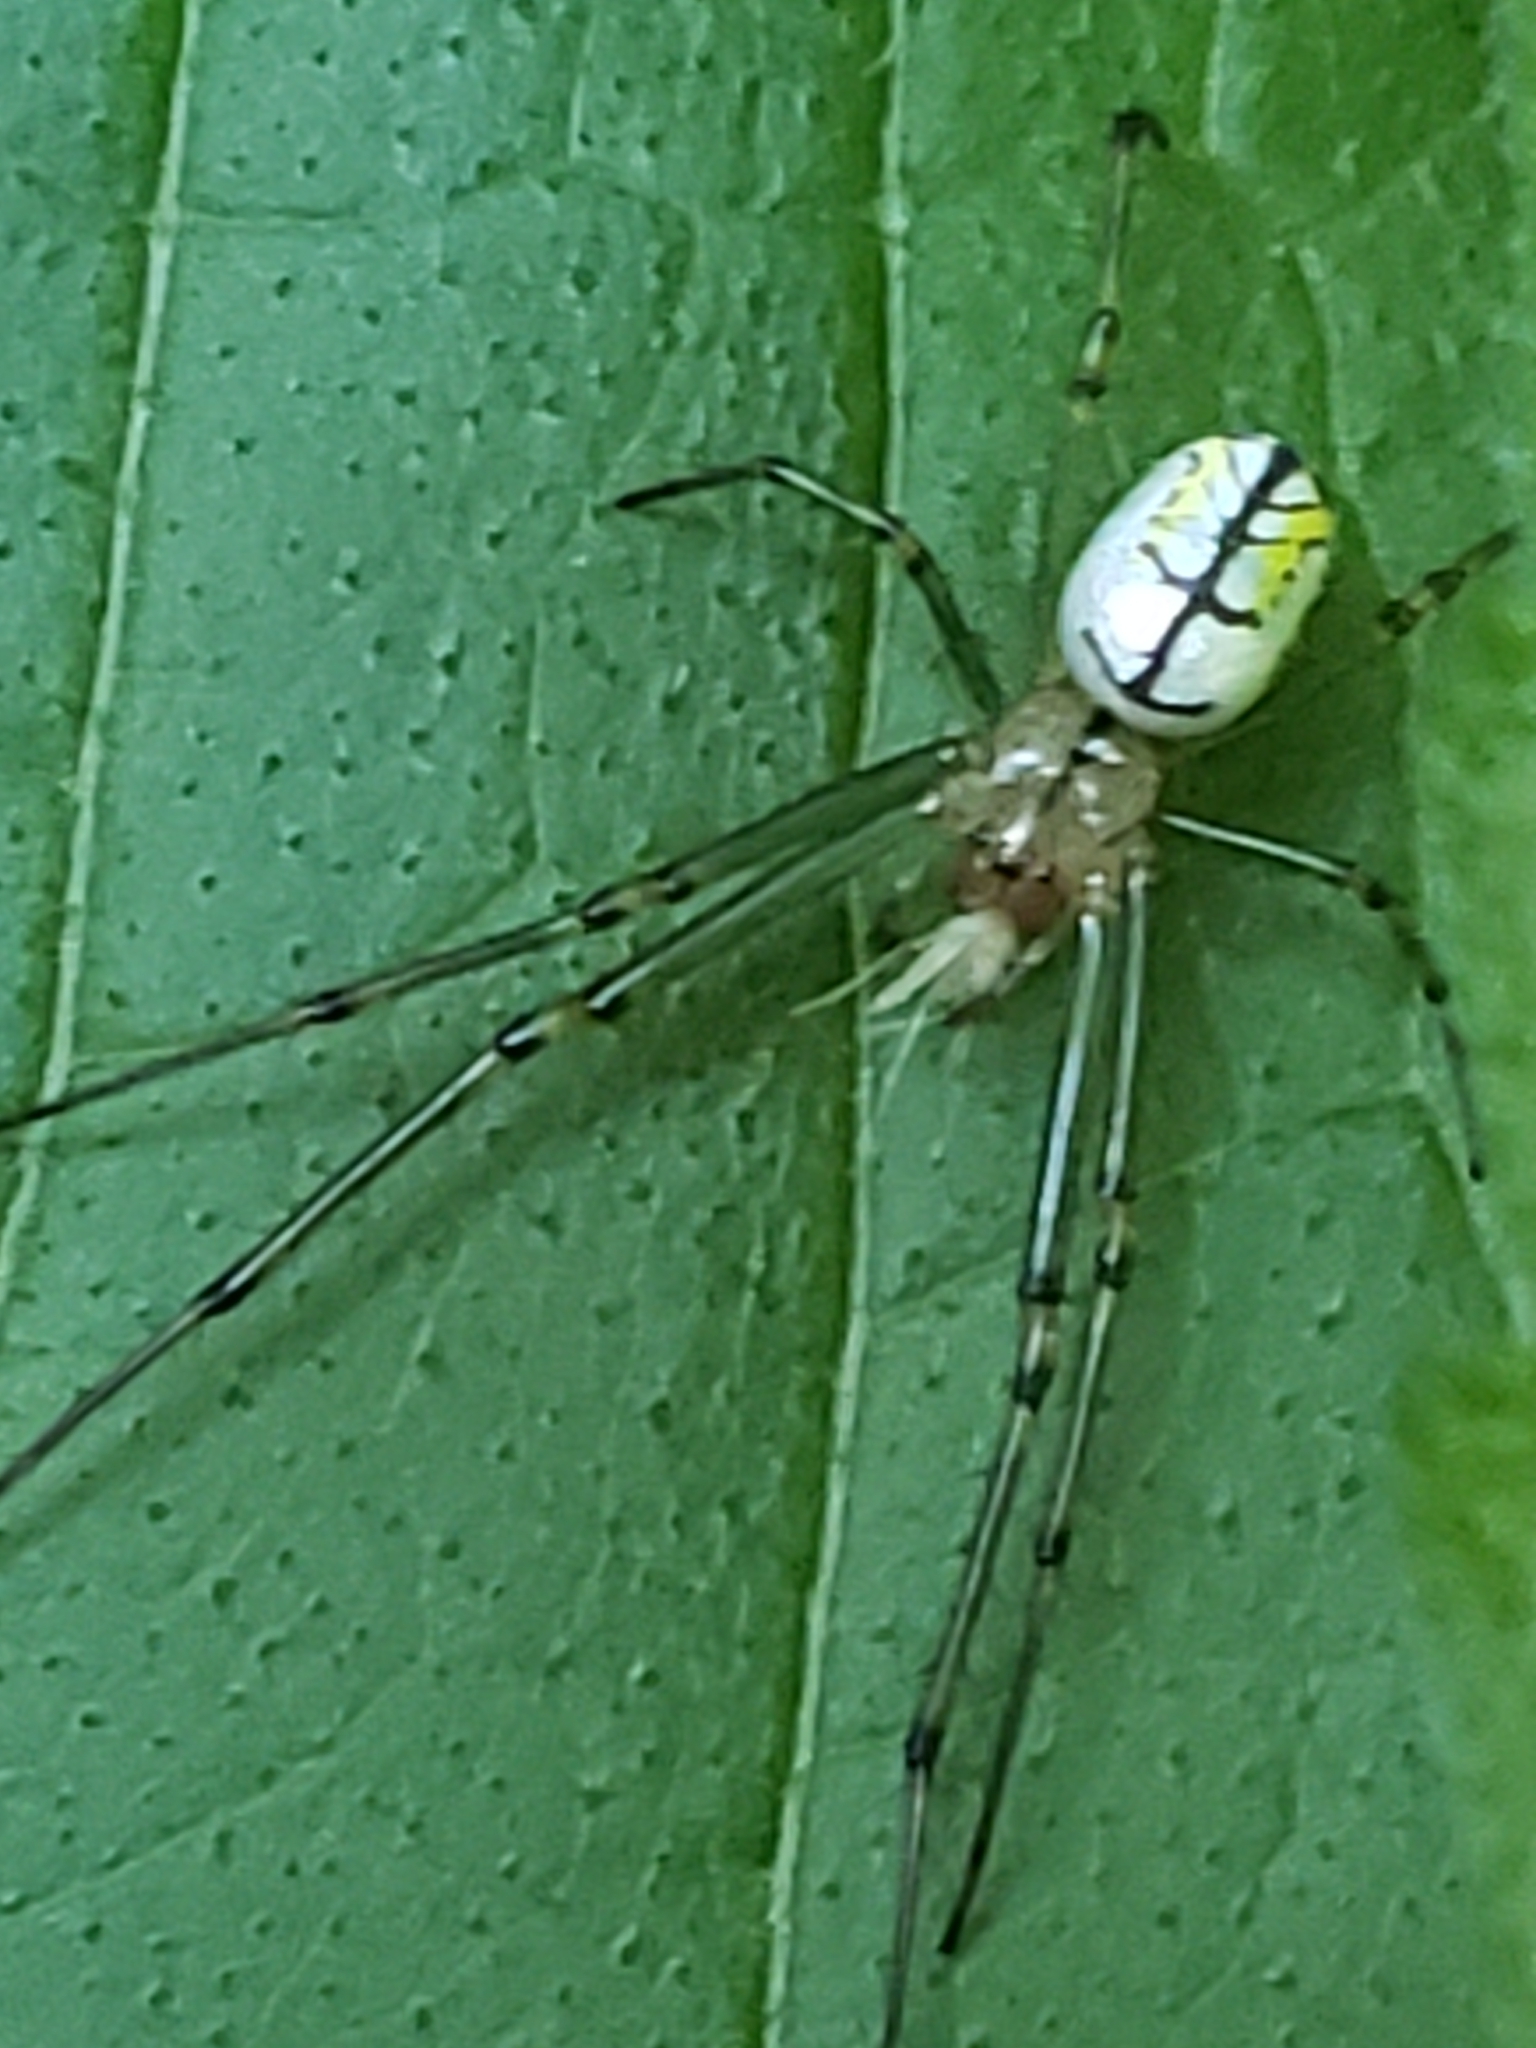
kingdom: Animalia
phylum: Arthropoda
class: Arachnida
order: Araneae
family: Tetragnathidae
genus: Leucauge
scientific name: Leucauge venusta
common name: Longjawed orb weavers
